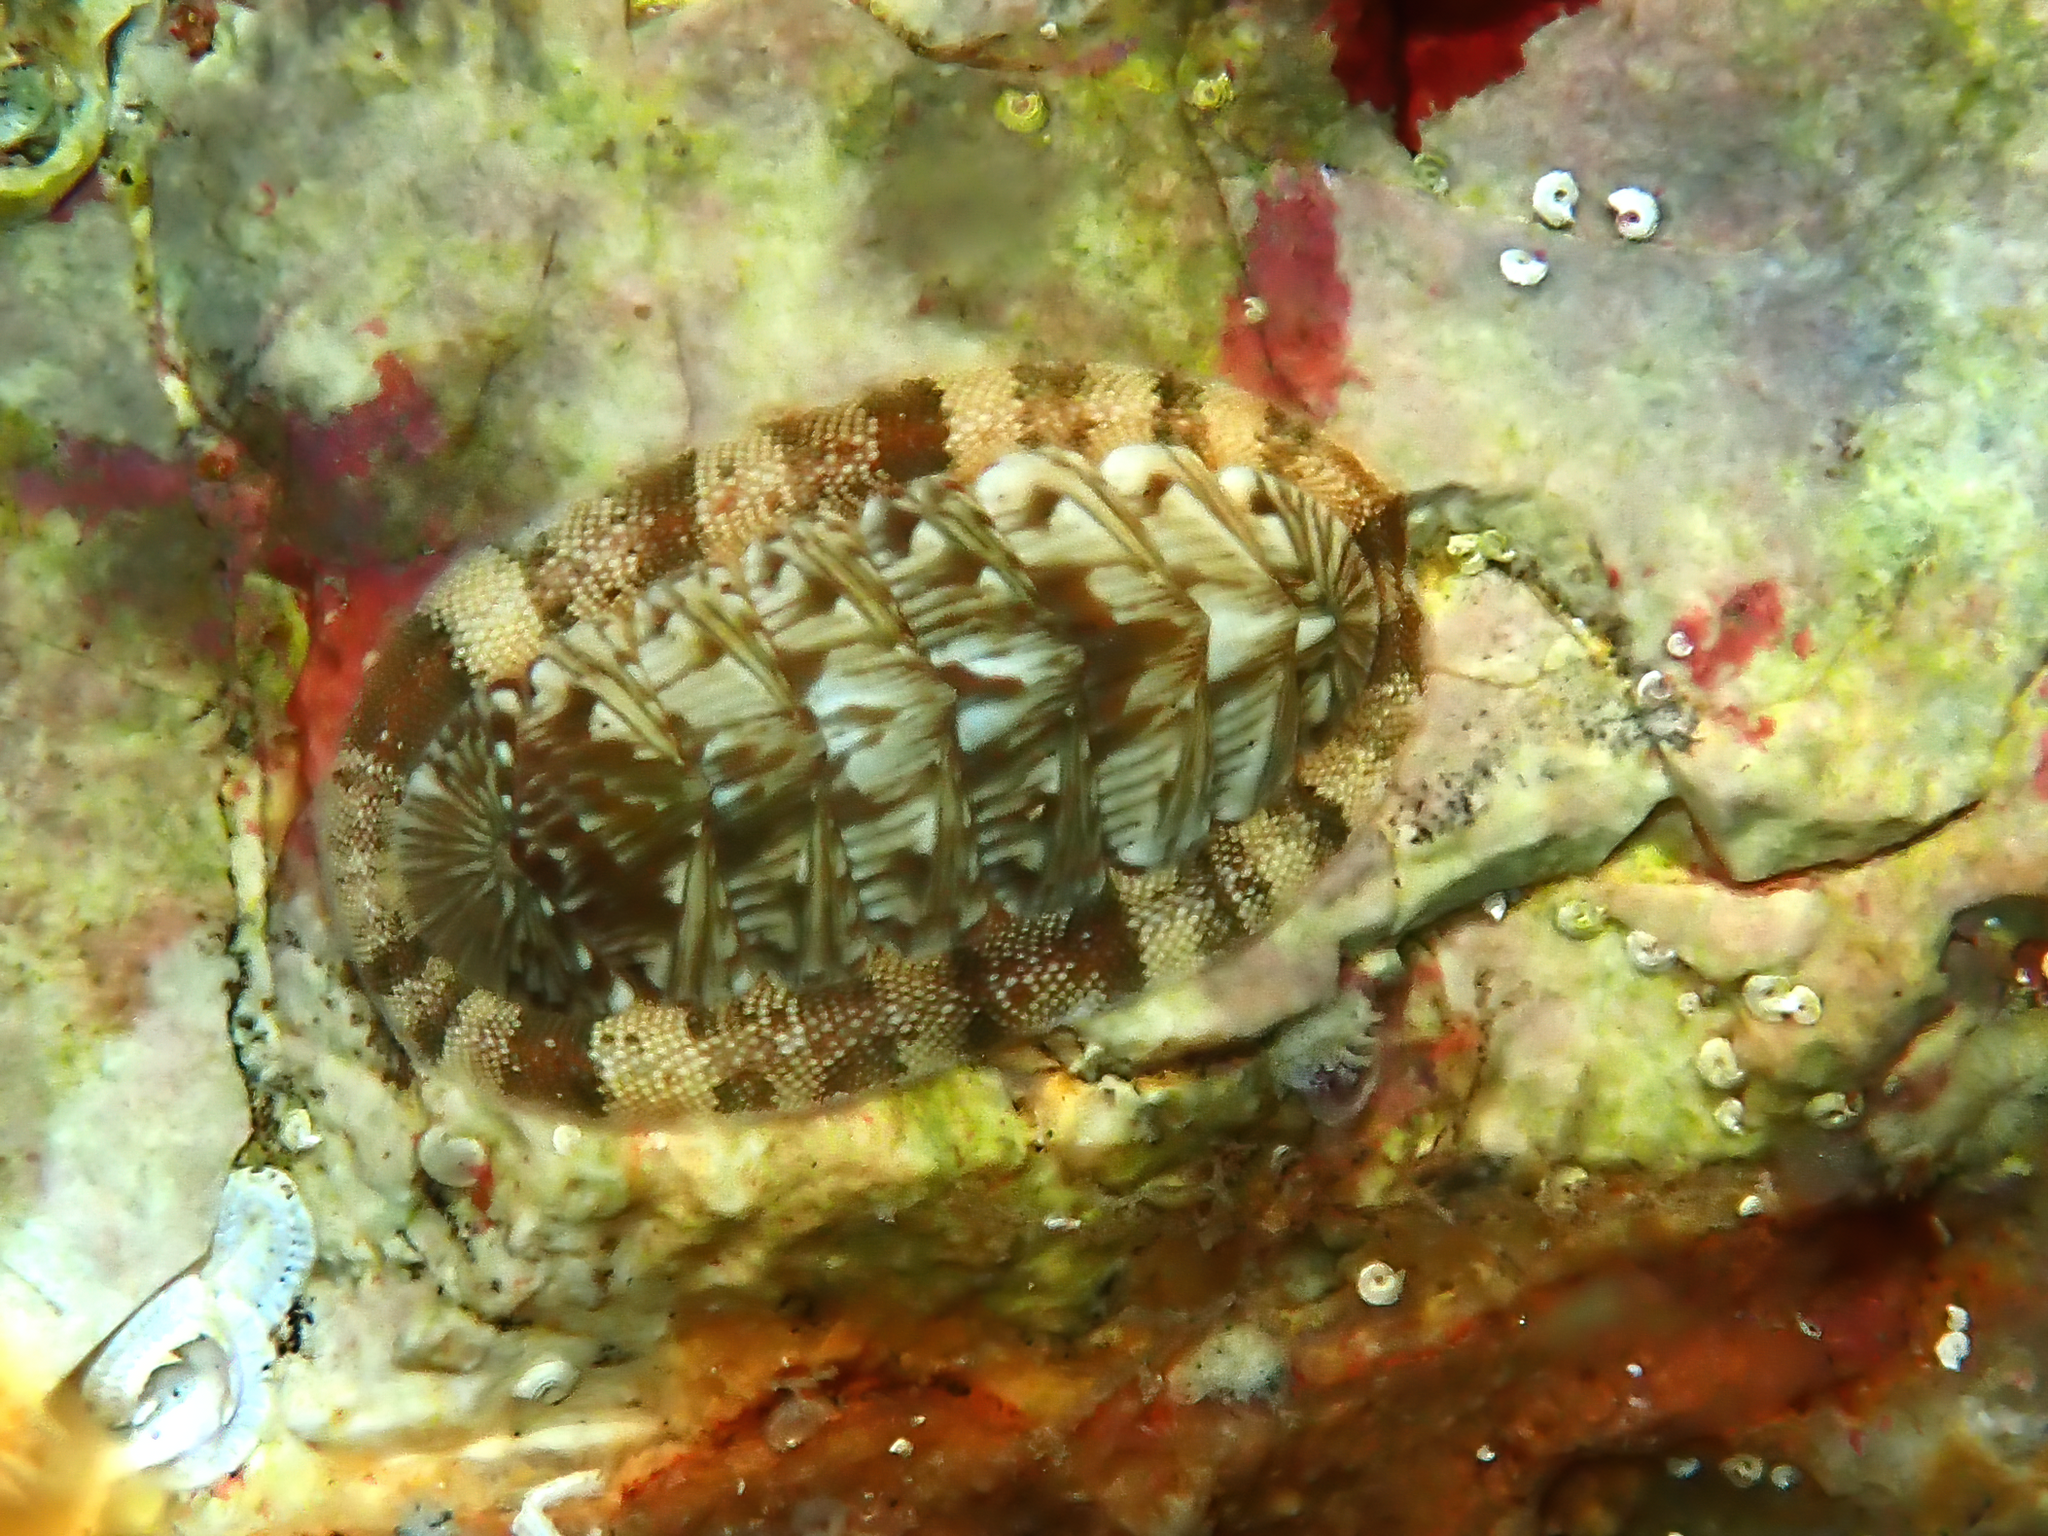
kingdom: Animalia
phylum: Mollusca
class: Polyplacophora
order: Chitonida
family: Chitonidae
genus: Rhyssoplax
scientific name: Rhyssoplax olivacea
